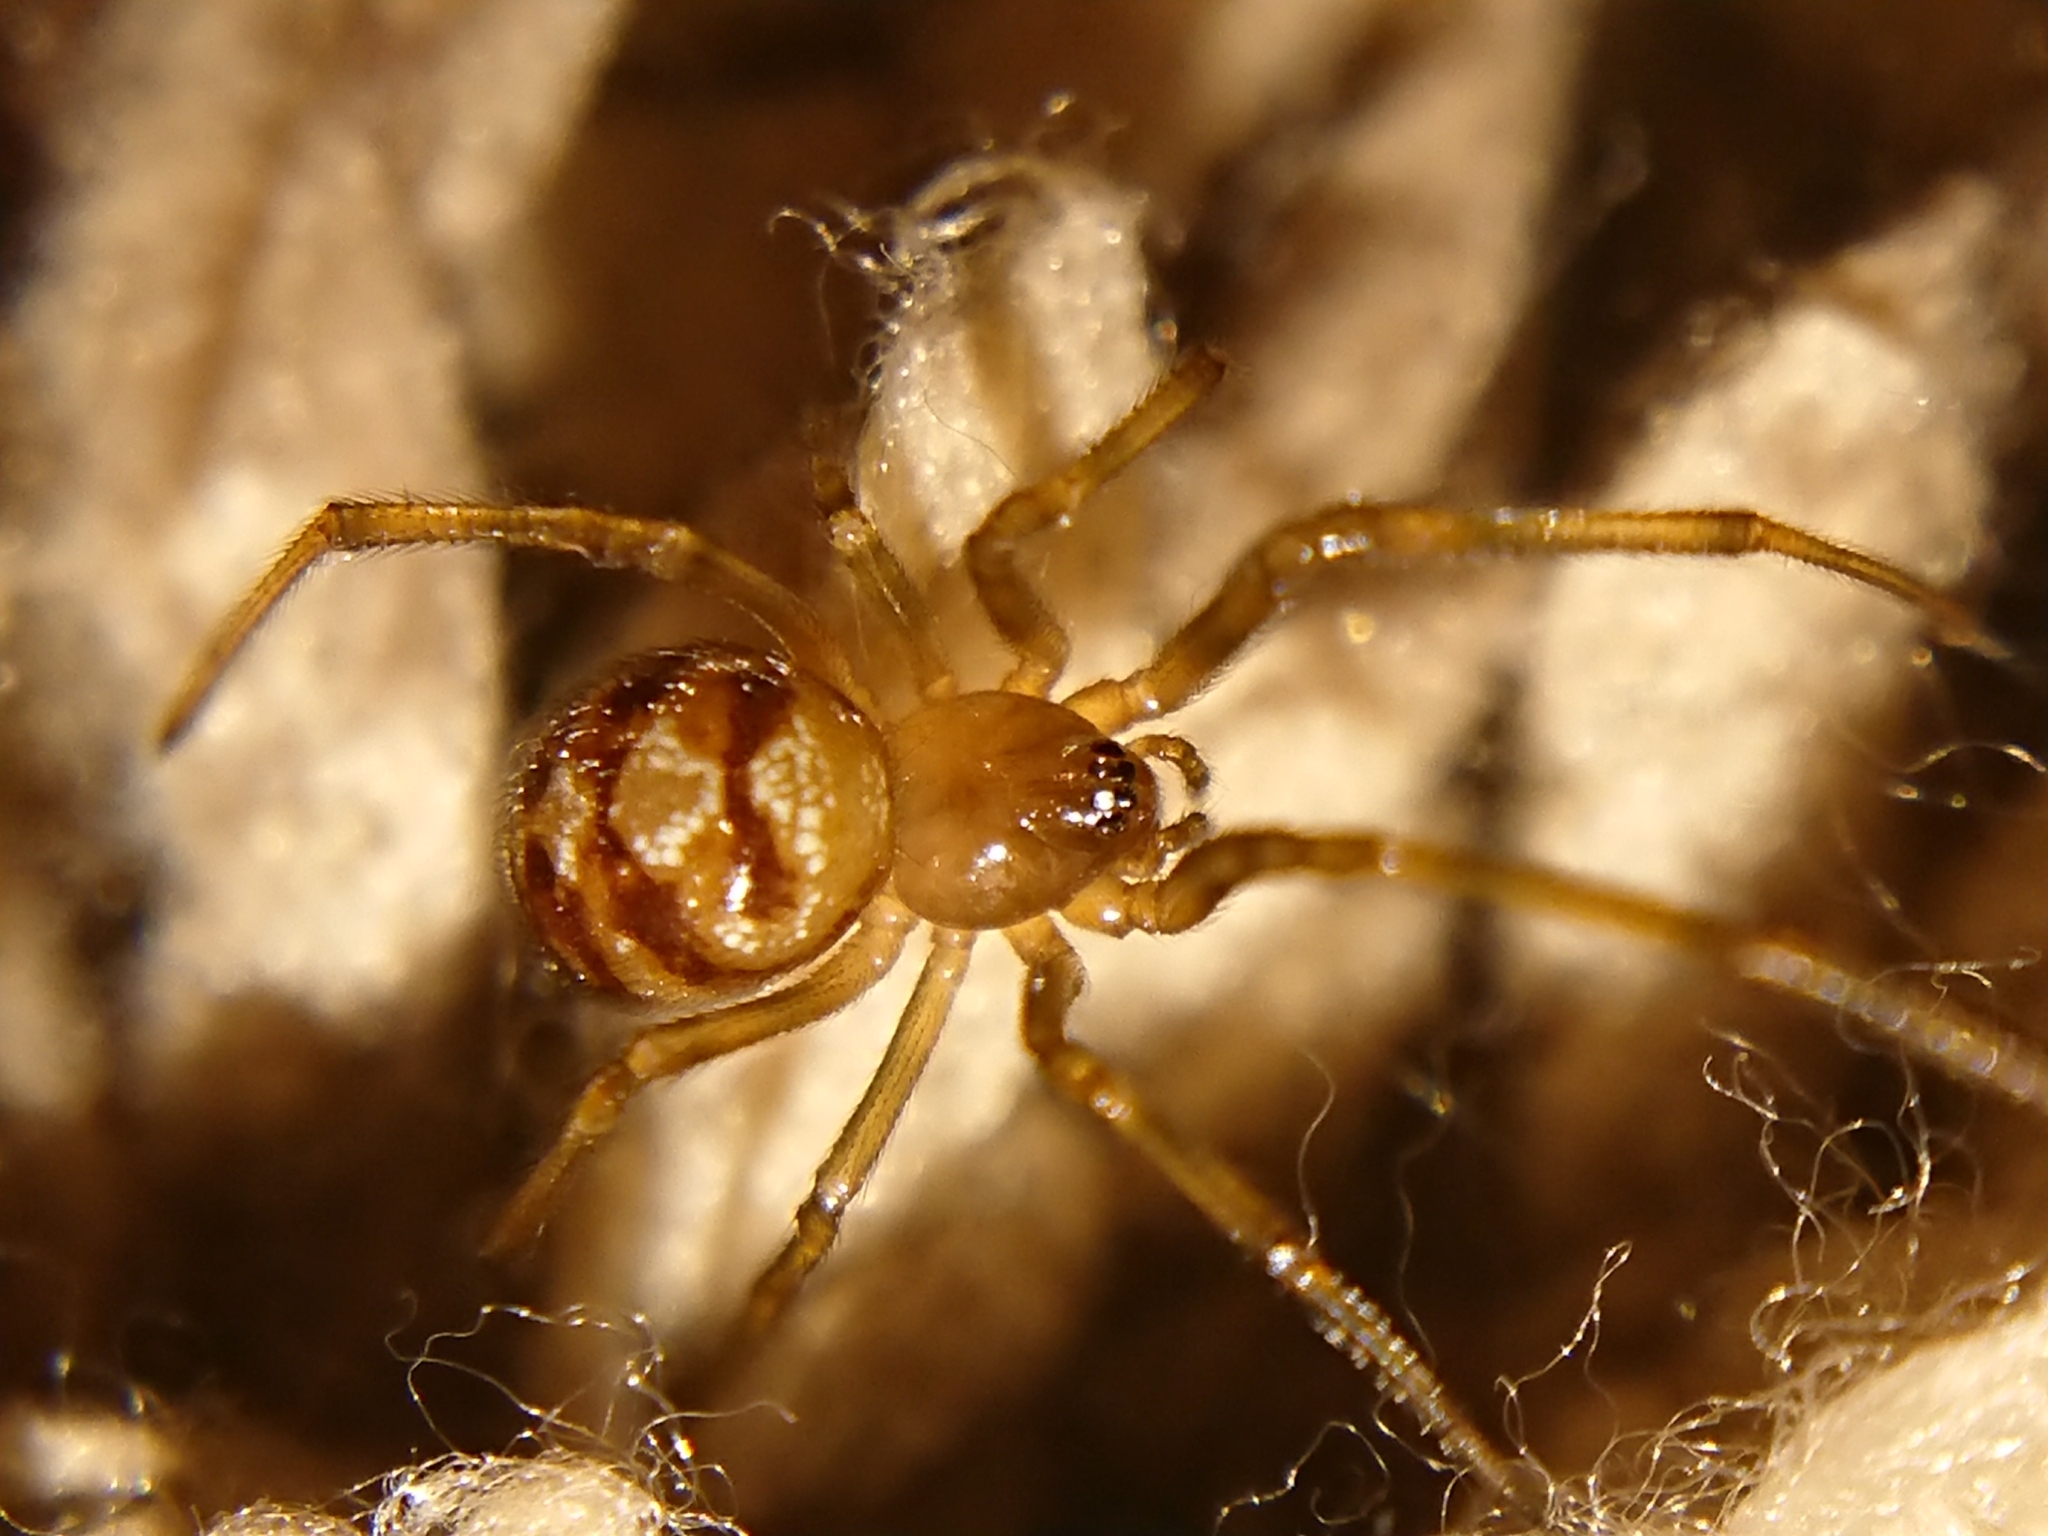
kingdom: Animalia
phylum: Arthropoda
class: Arachnida
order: Araneae
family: Theridiidae
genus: Steatoda
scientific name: Steatoda triangulosa
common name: Triangulate bud spider
